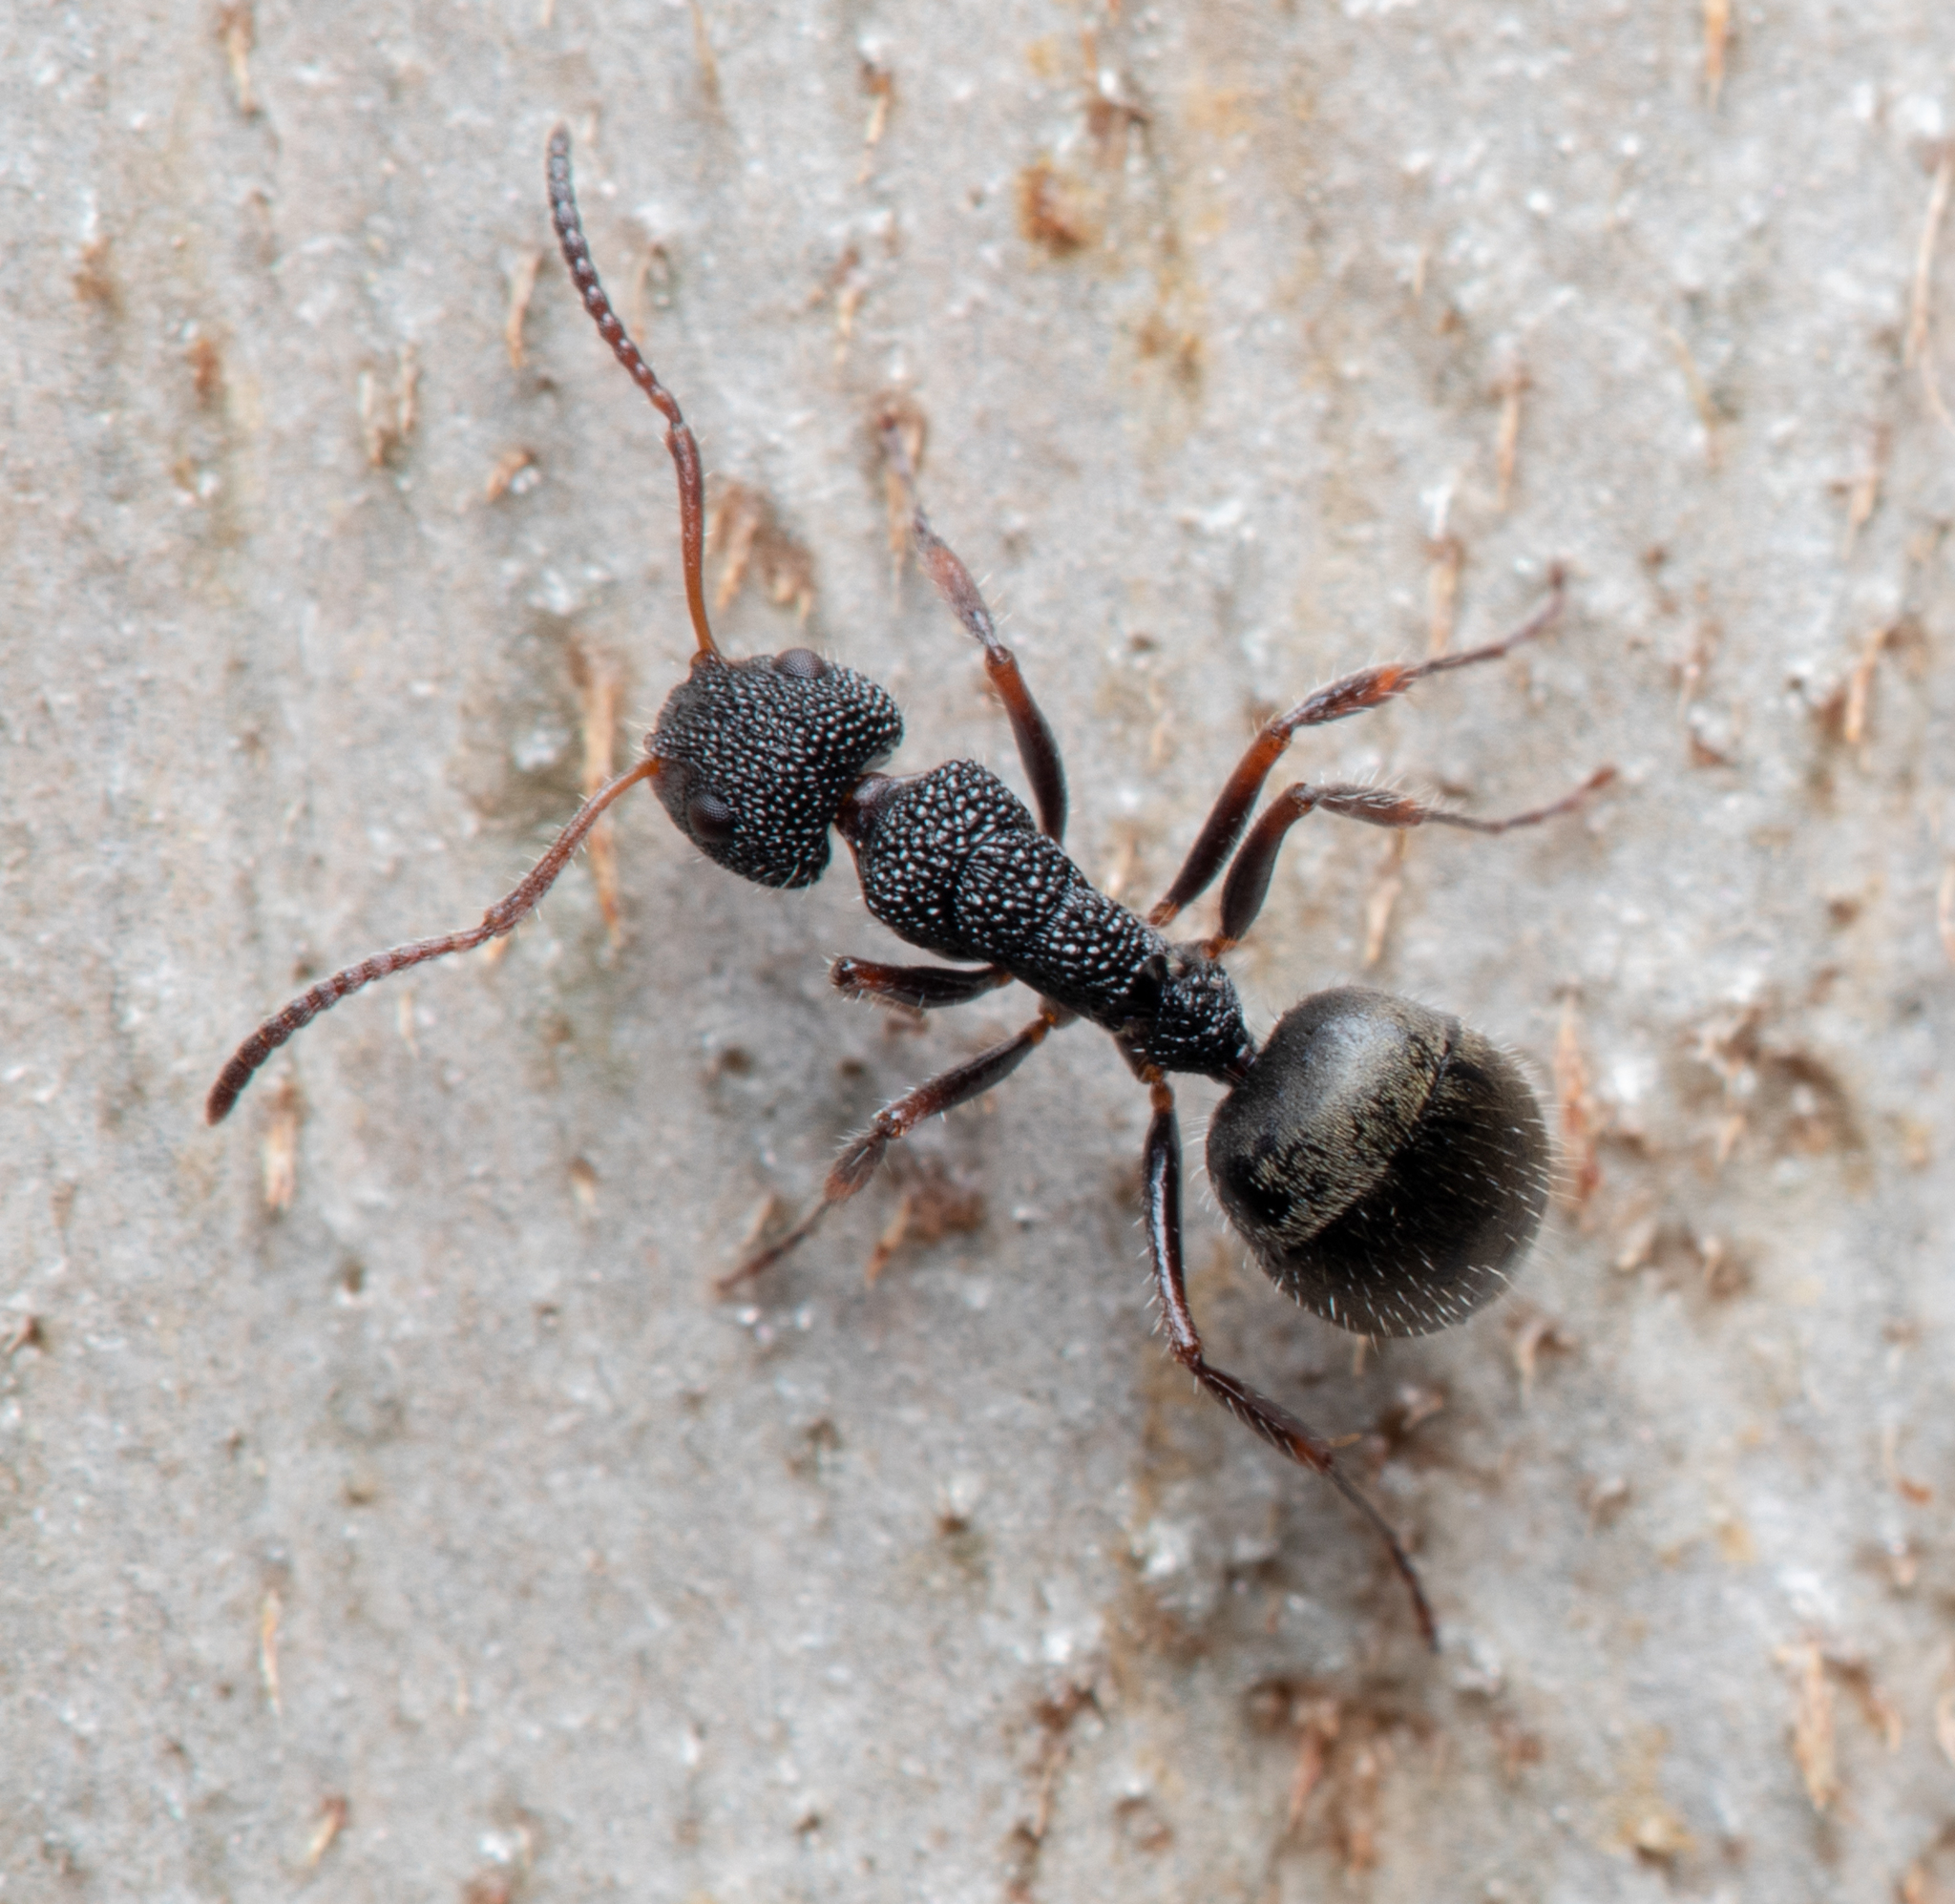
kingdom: Animalia
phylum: Arthropoda
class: Insecta
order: Hymenoptera
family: Formicidae
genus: Dolichoderus
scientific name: Dolichoderus scrobiculatus
